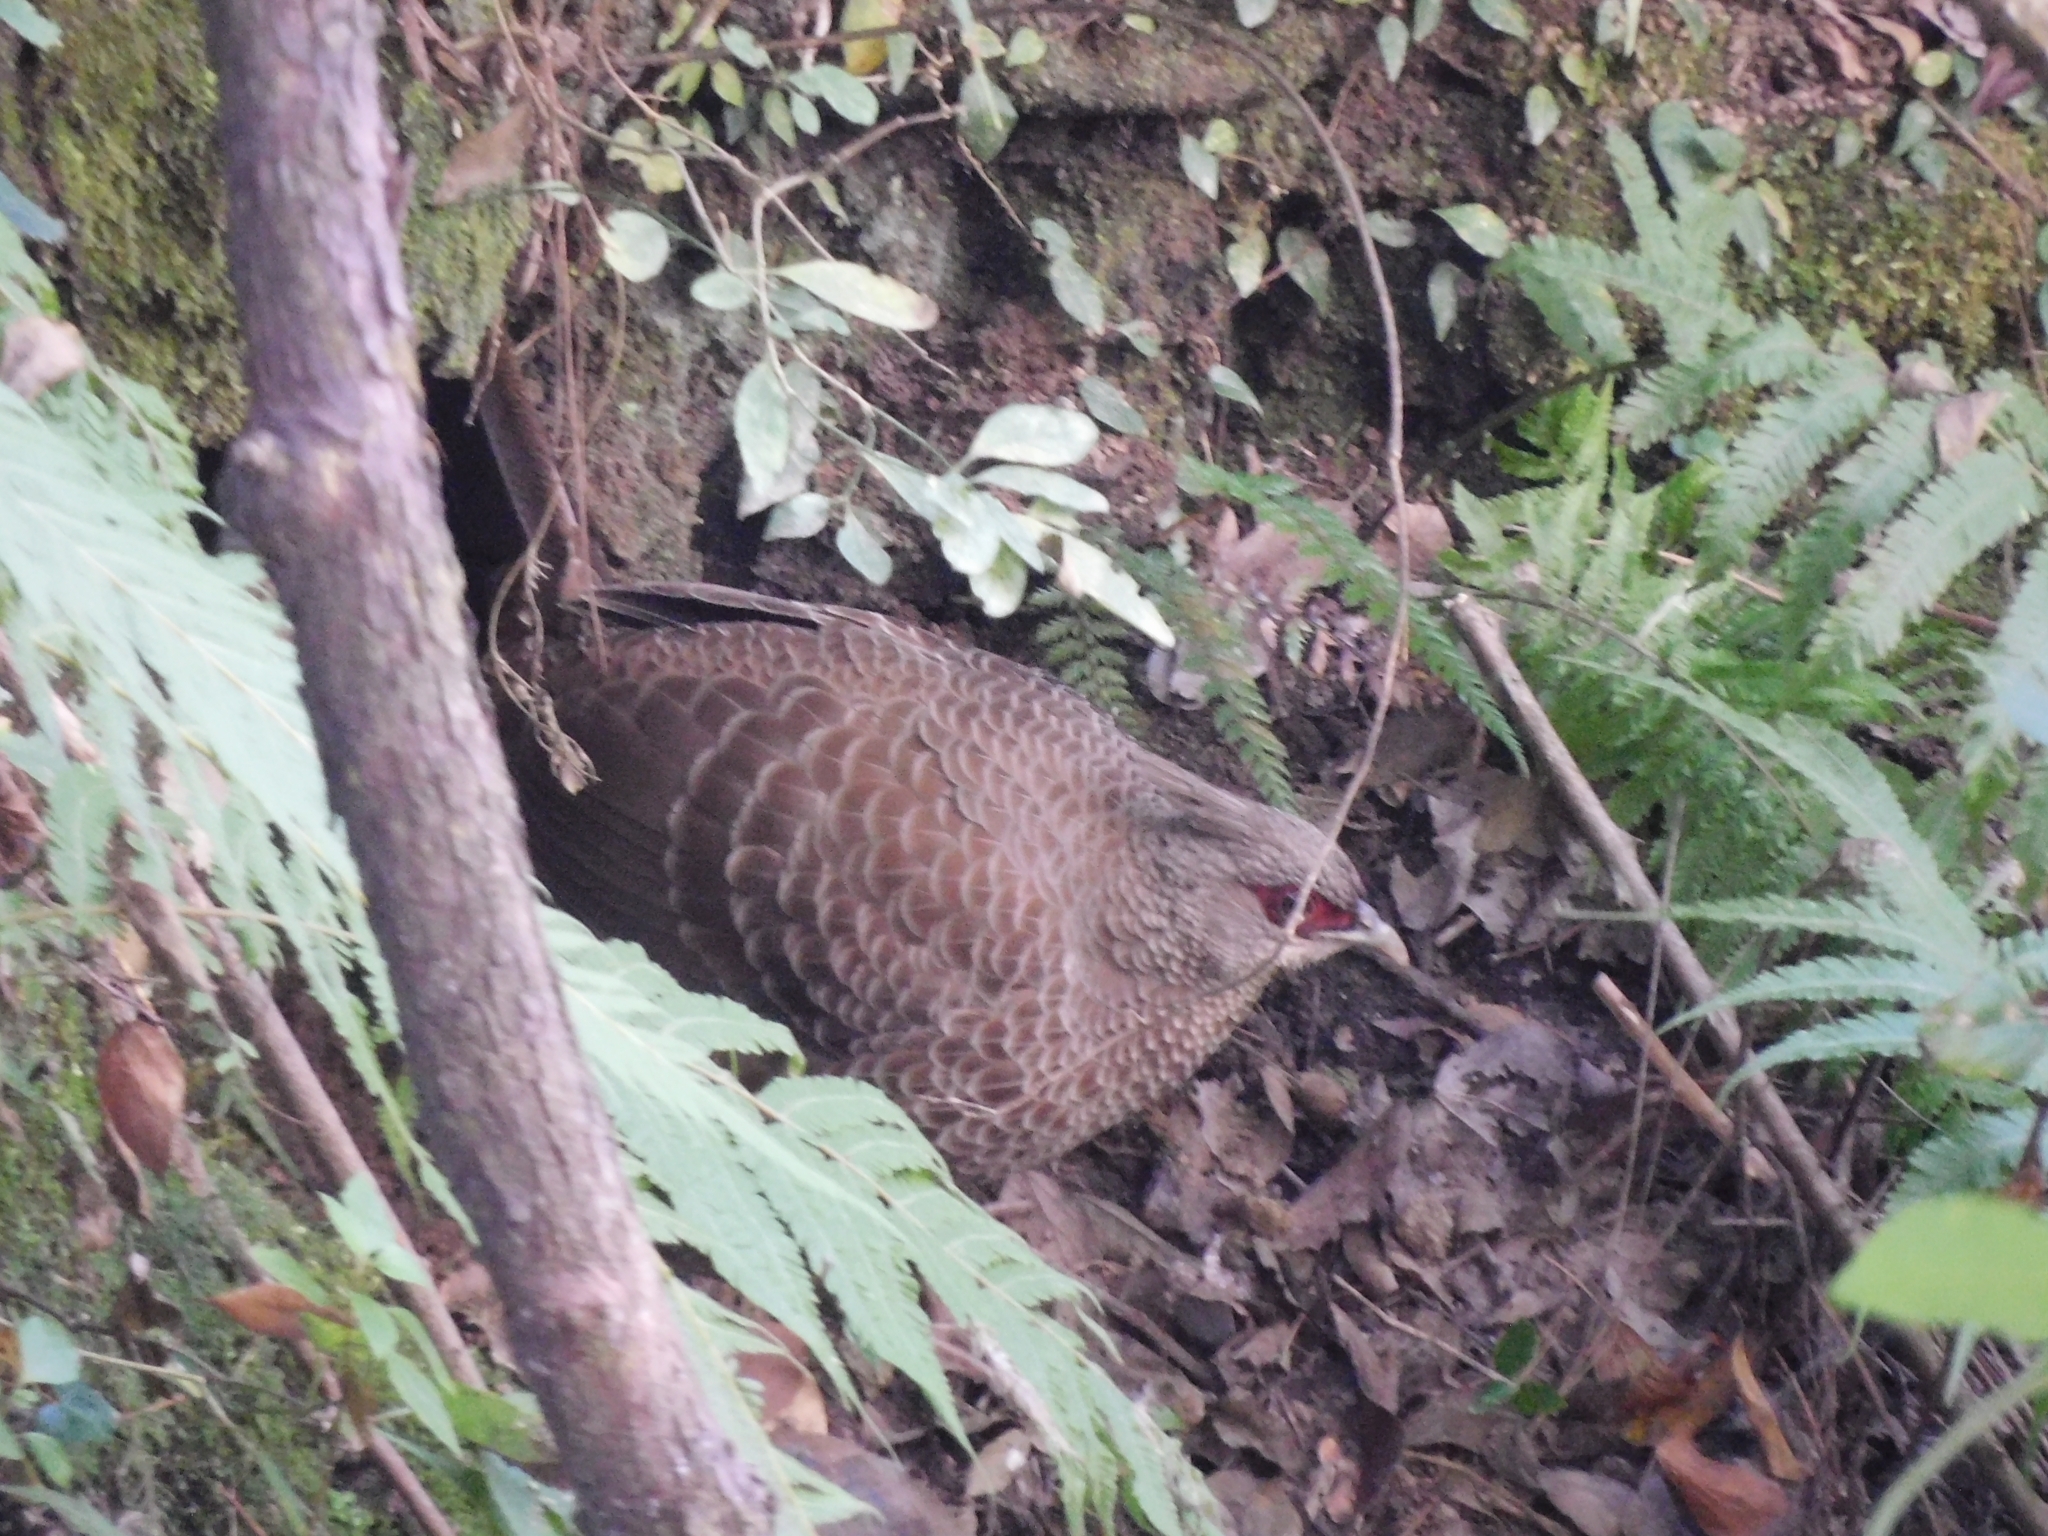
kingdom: Animalia
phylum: Chordata
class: Aves
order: Galliformes
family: Phasianidae
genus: Lophura
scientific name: Lophura leucomelanos
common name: Kalij pheasant
